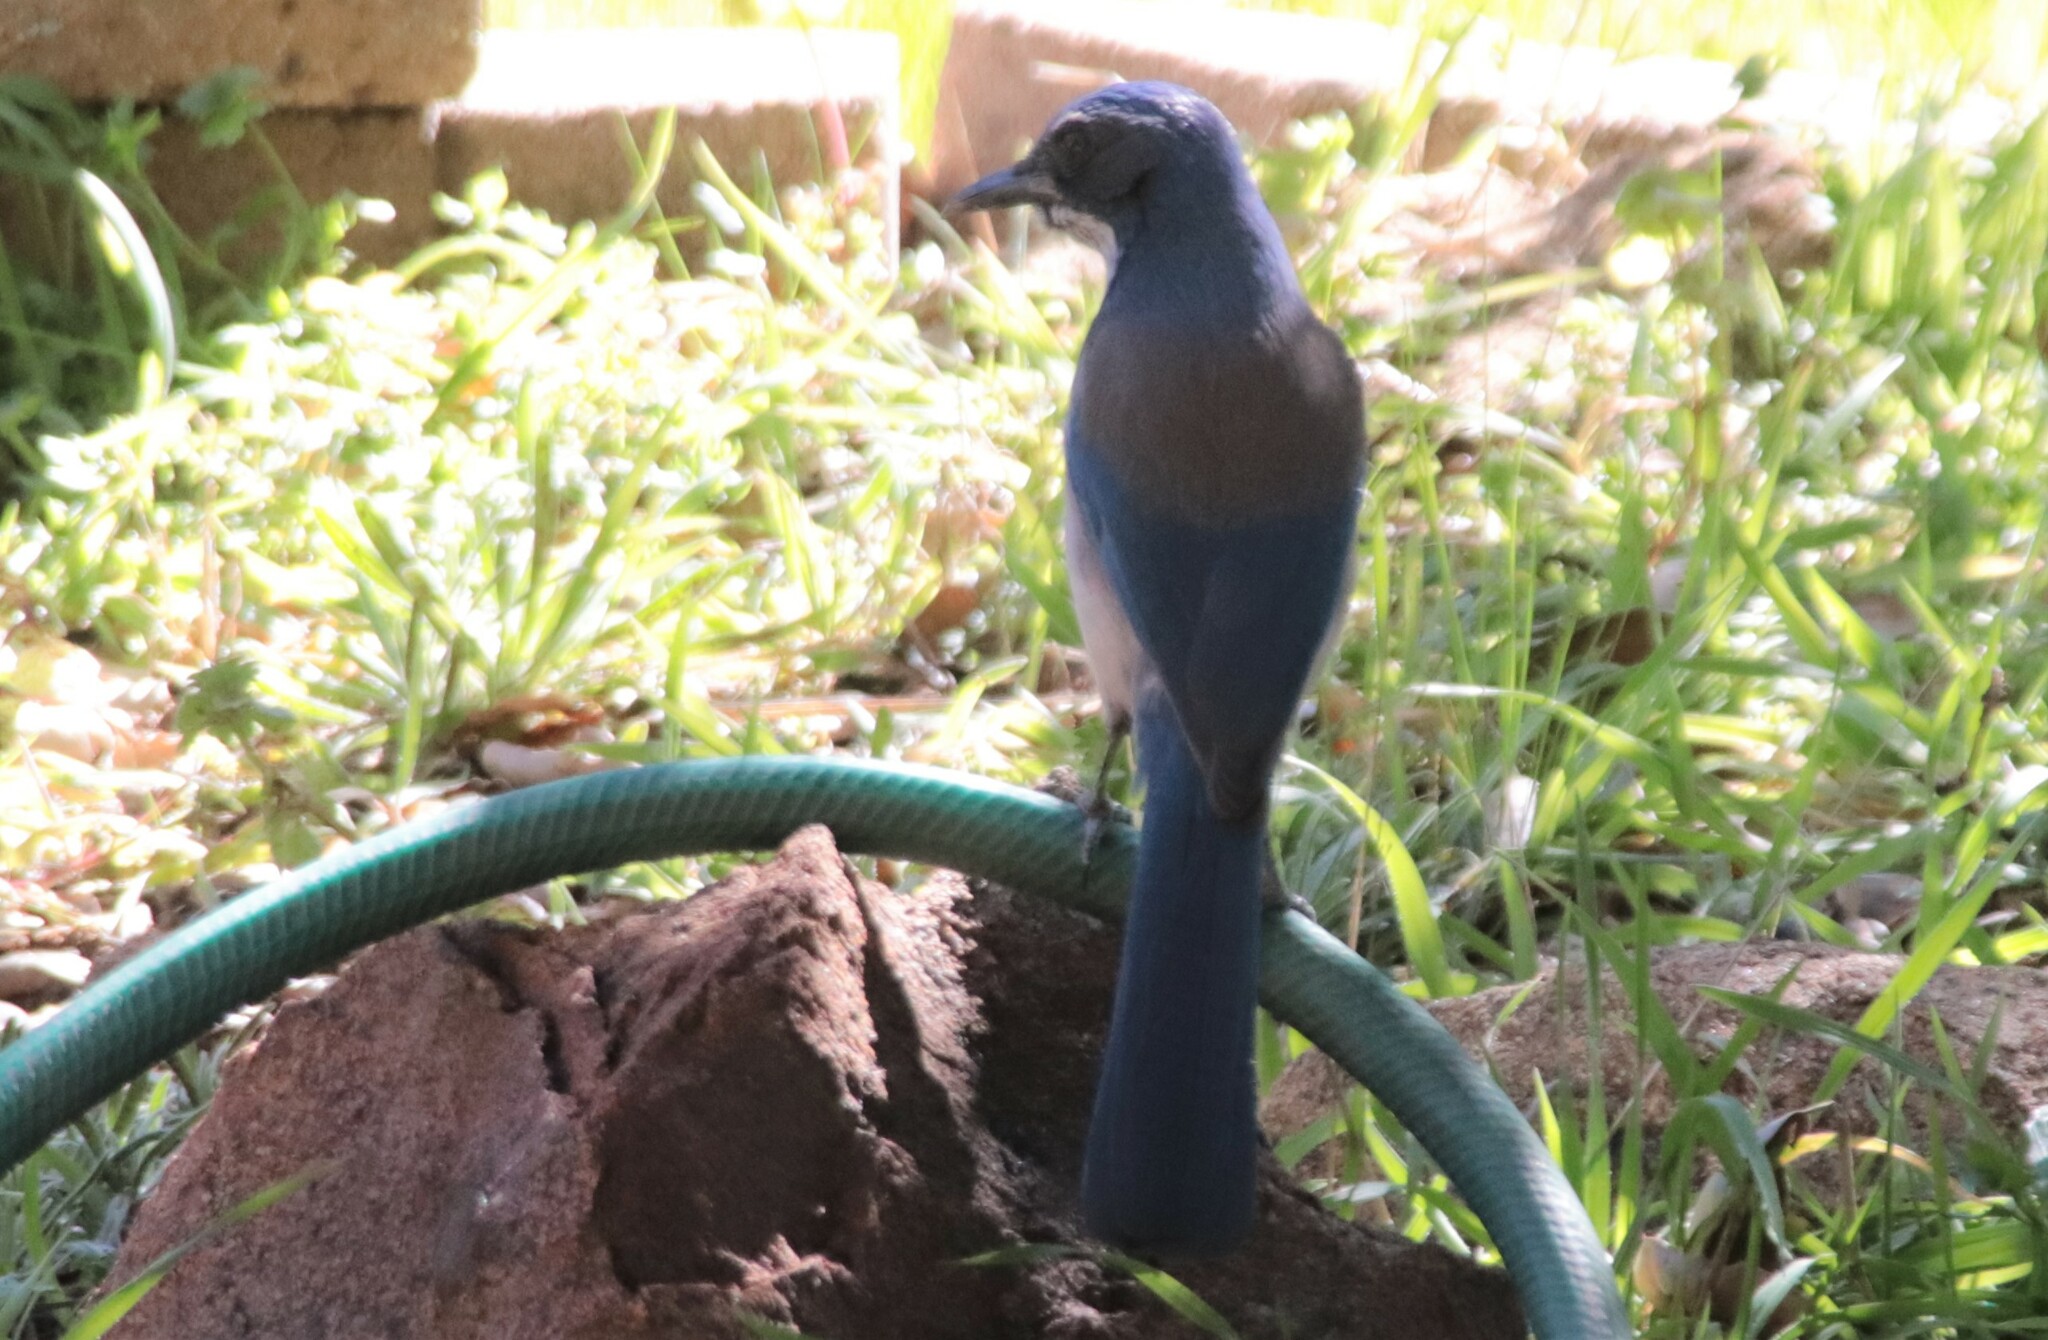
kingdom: Animalia
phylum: Chordata
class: Aves
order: Passeriformes
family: Corvidae
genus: Aphelocoma
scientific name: Aphelocoma californica
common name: California scrub-jay
